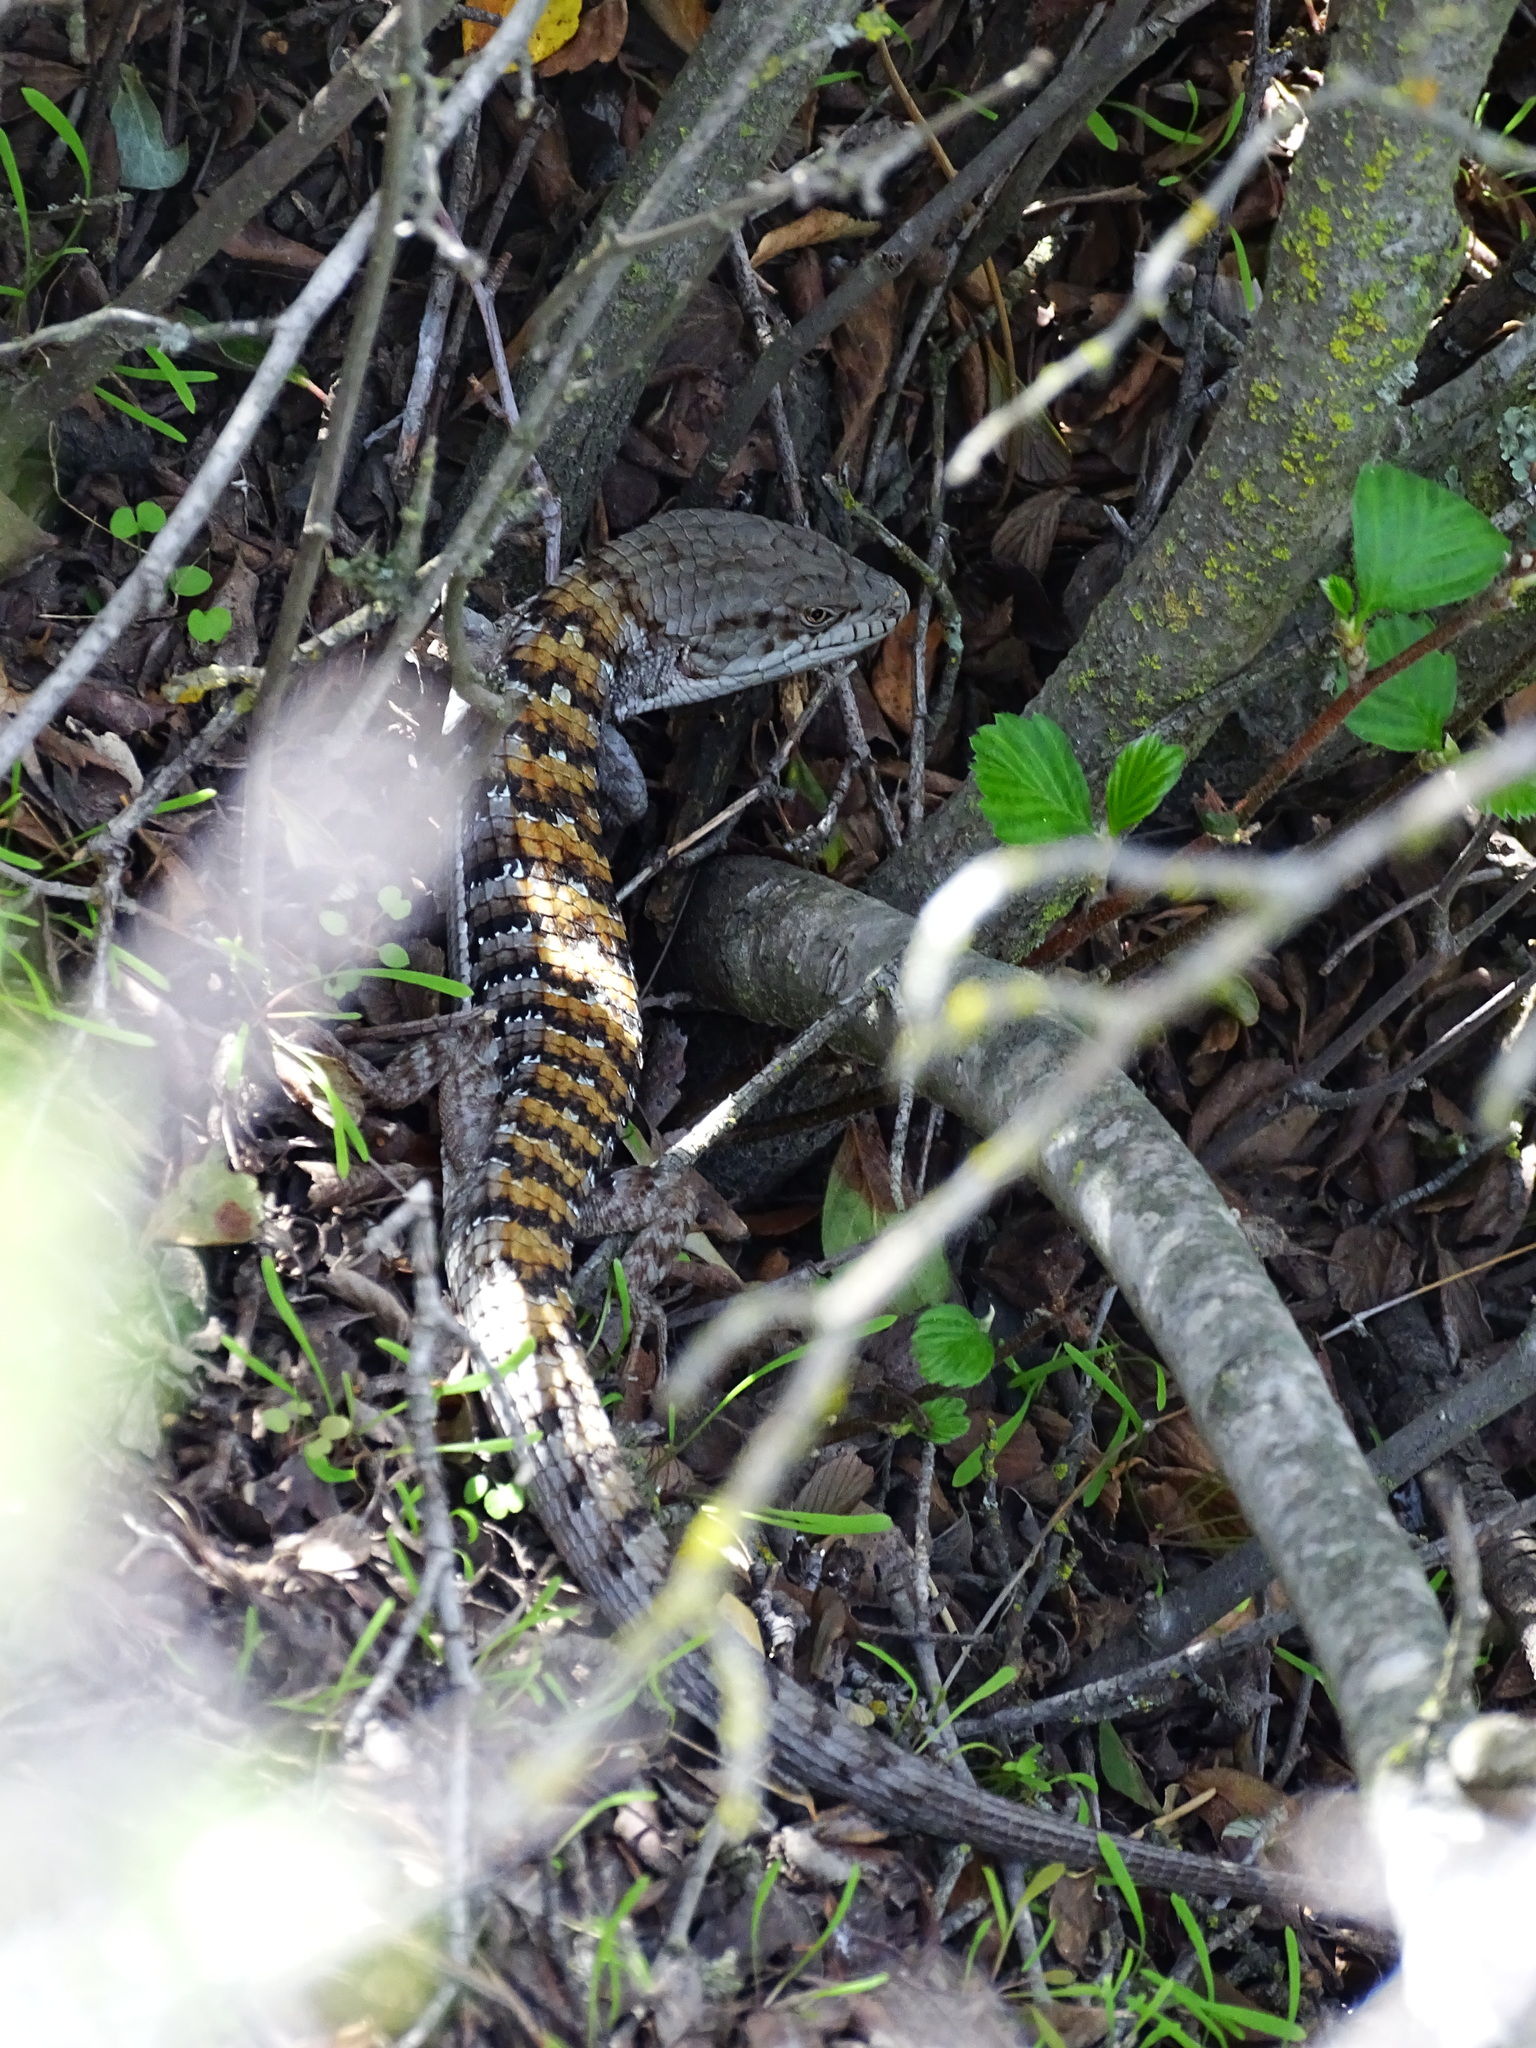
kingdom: Animalia
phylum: Chordata
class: Squamata
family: Anguidae
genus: Elgaria
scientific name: Elgaria multicarinata
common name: Southern alligator lizard
